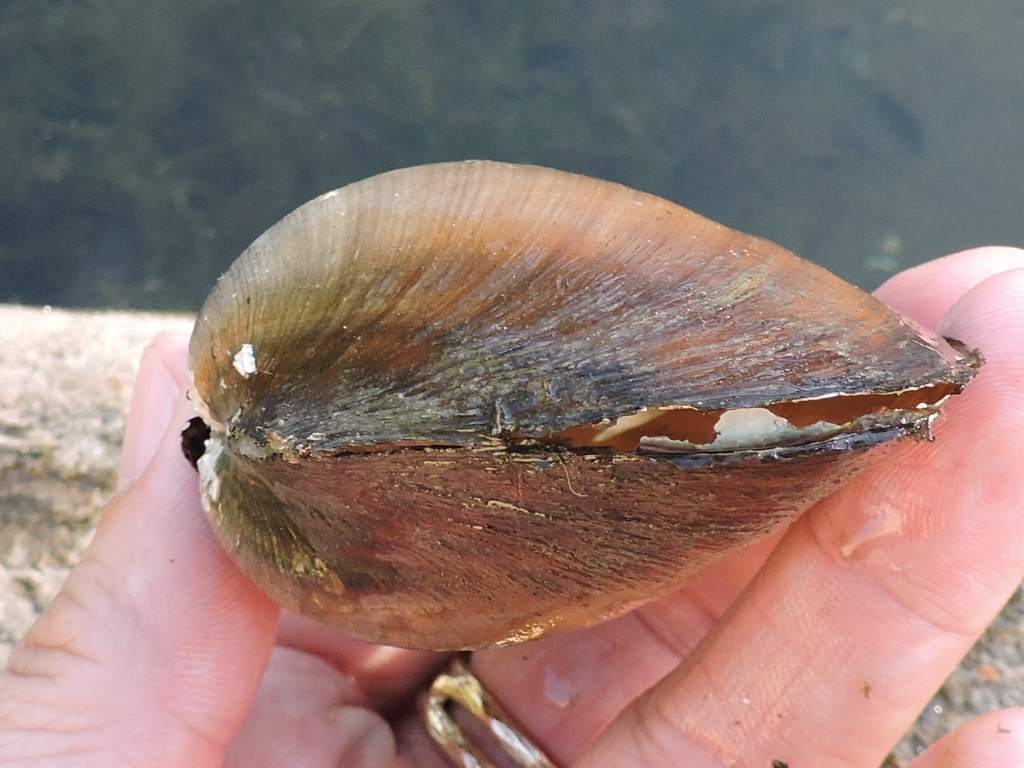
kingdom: Animalia
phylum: Mollusca
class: Bivalvia
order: Unionida
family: Unionidae
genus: Pyganodon
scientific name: Pyganodon grandis
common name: Giant floater
